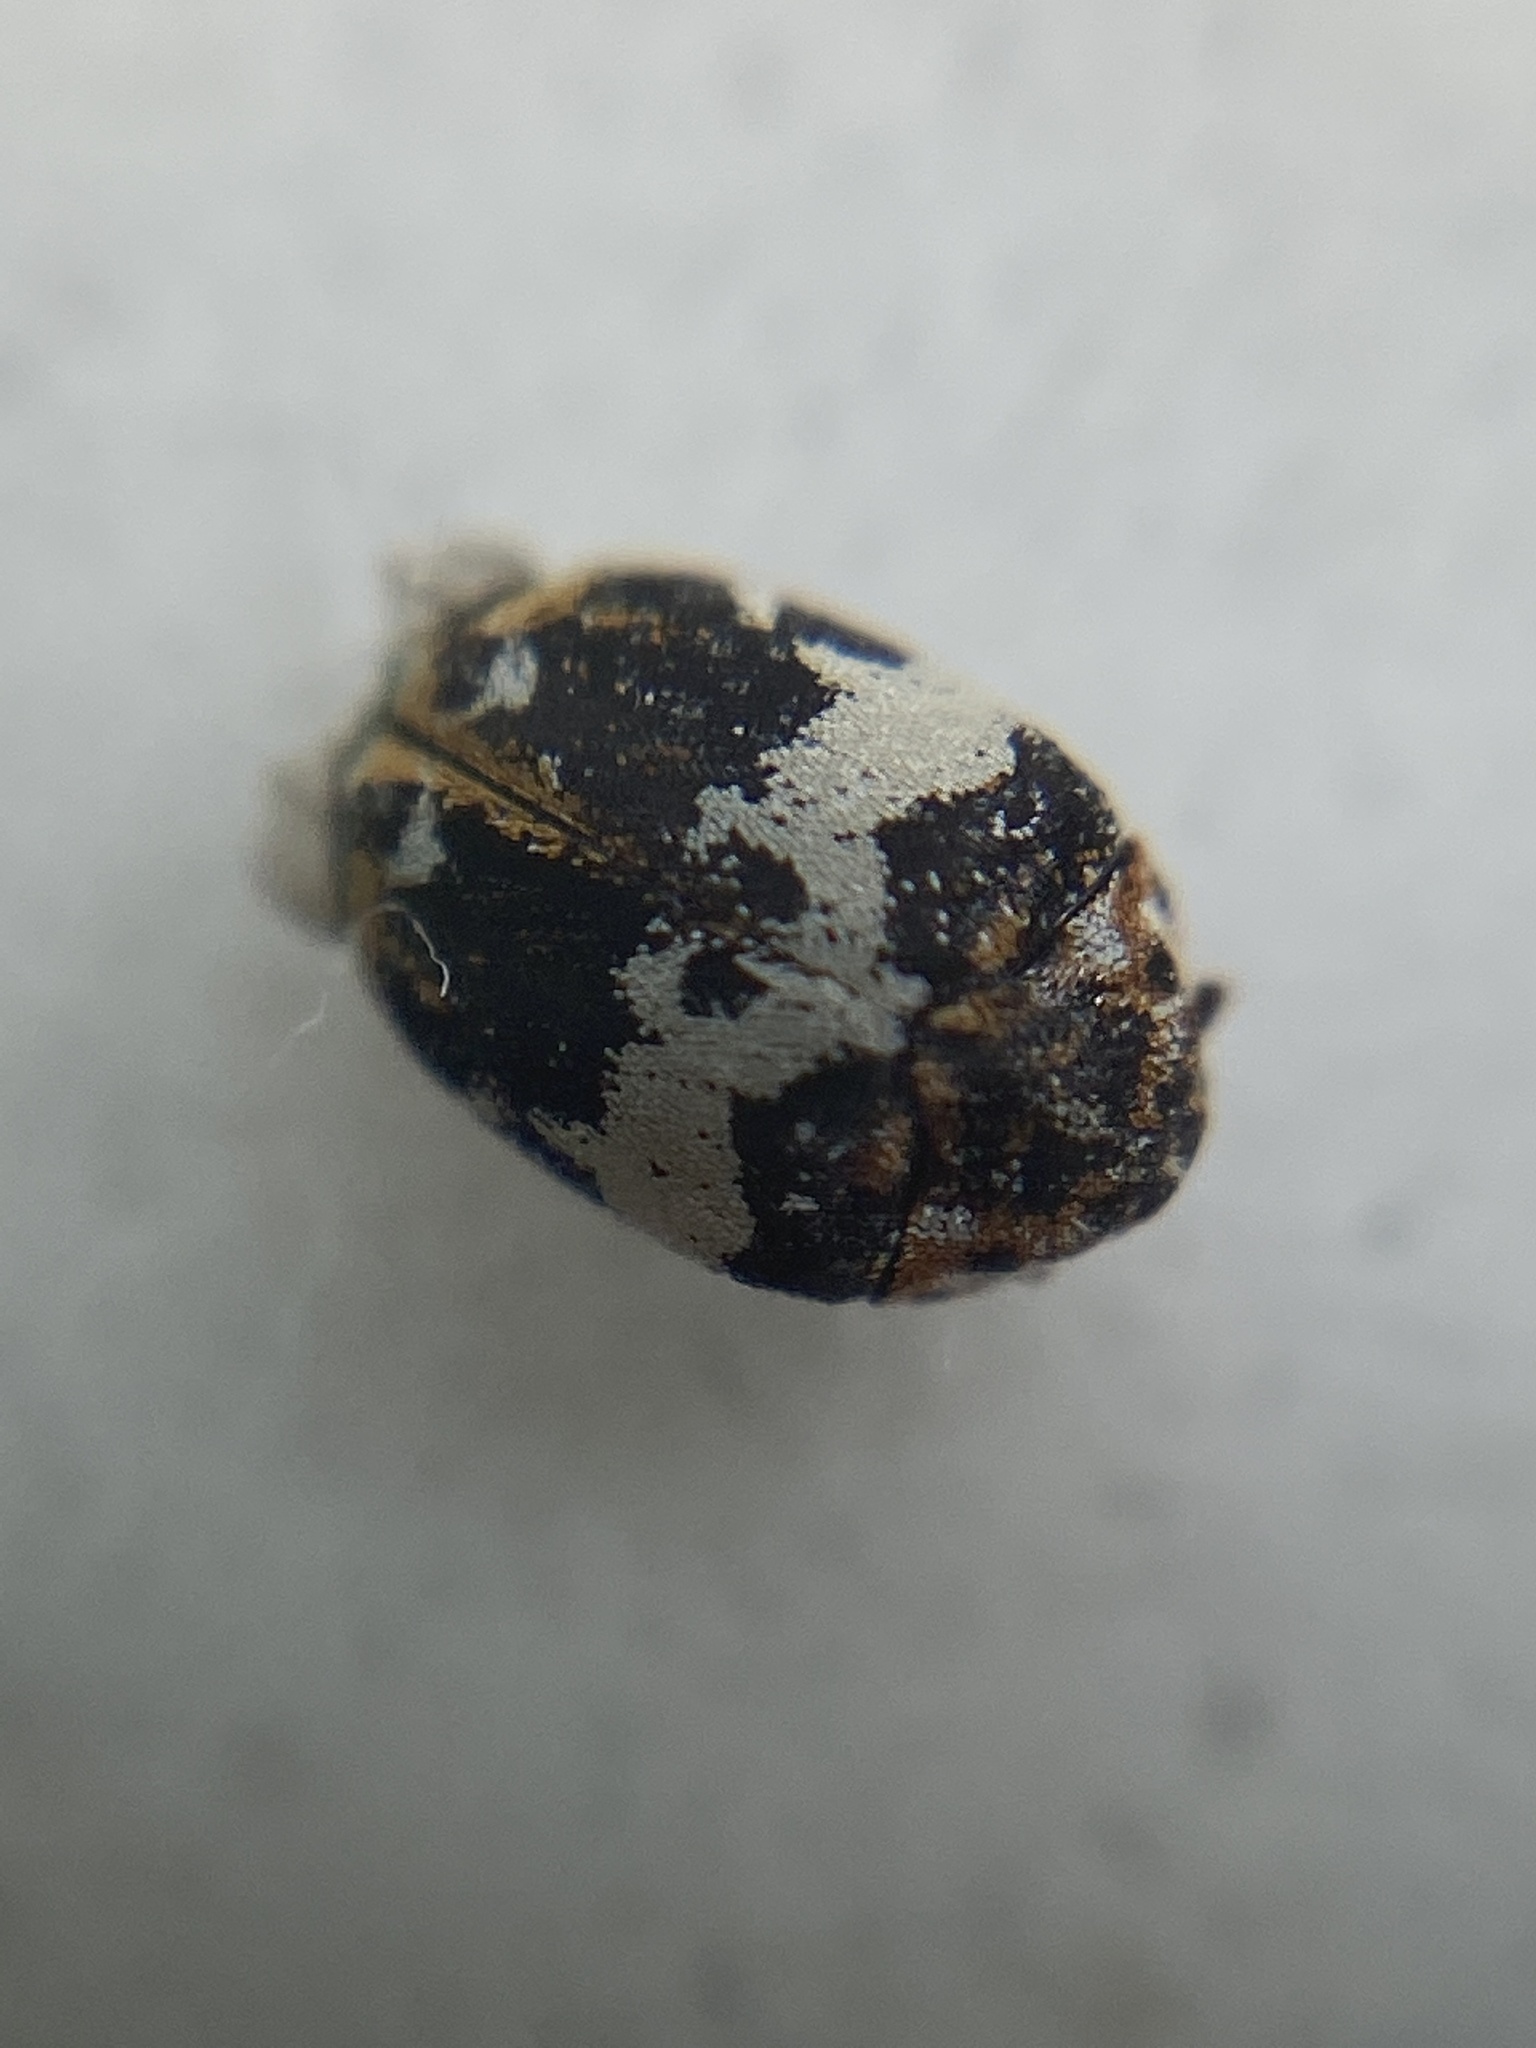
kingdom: Animalia
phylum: Arthropoda
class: Insecta
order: Coleoptera
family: Dermestidae
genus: Anthrenus
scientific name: Anthrenus pimpinellae
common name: Dermestid beetle
